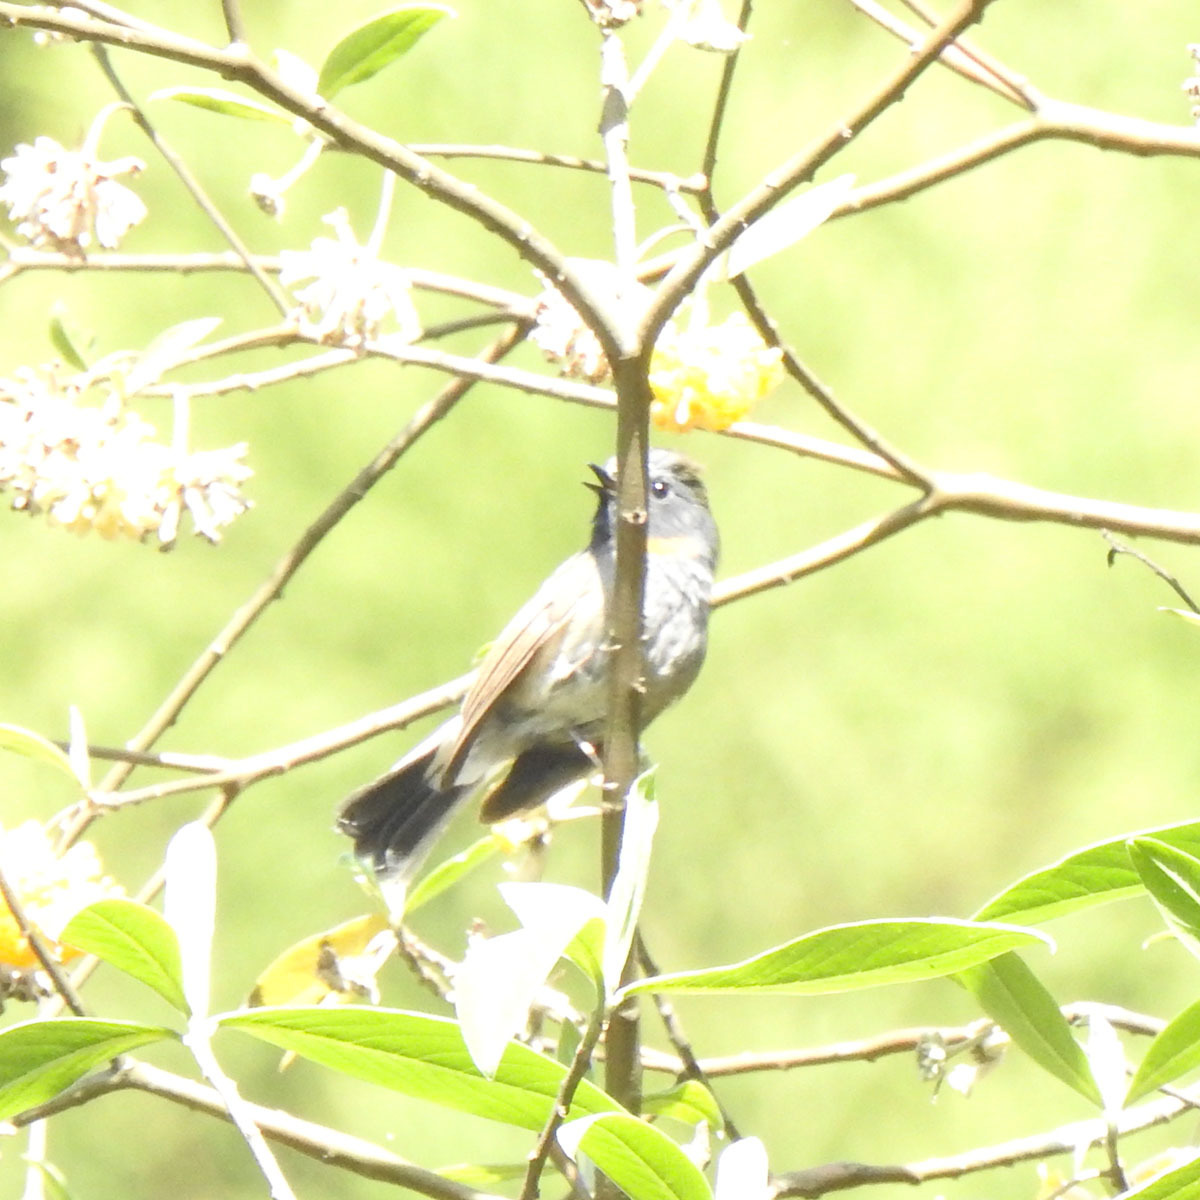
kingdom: Animalia
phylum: Chordata
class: Aves
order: Passeriformes
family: Muscicapidae
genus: Ficedula
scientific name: Ficedula strophiata
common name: Rufous-gorgeted flycatcher
